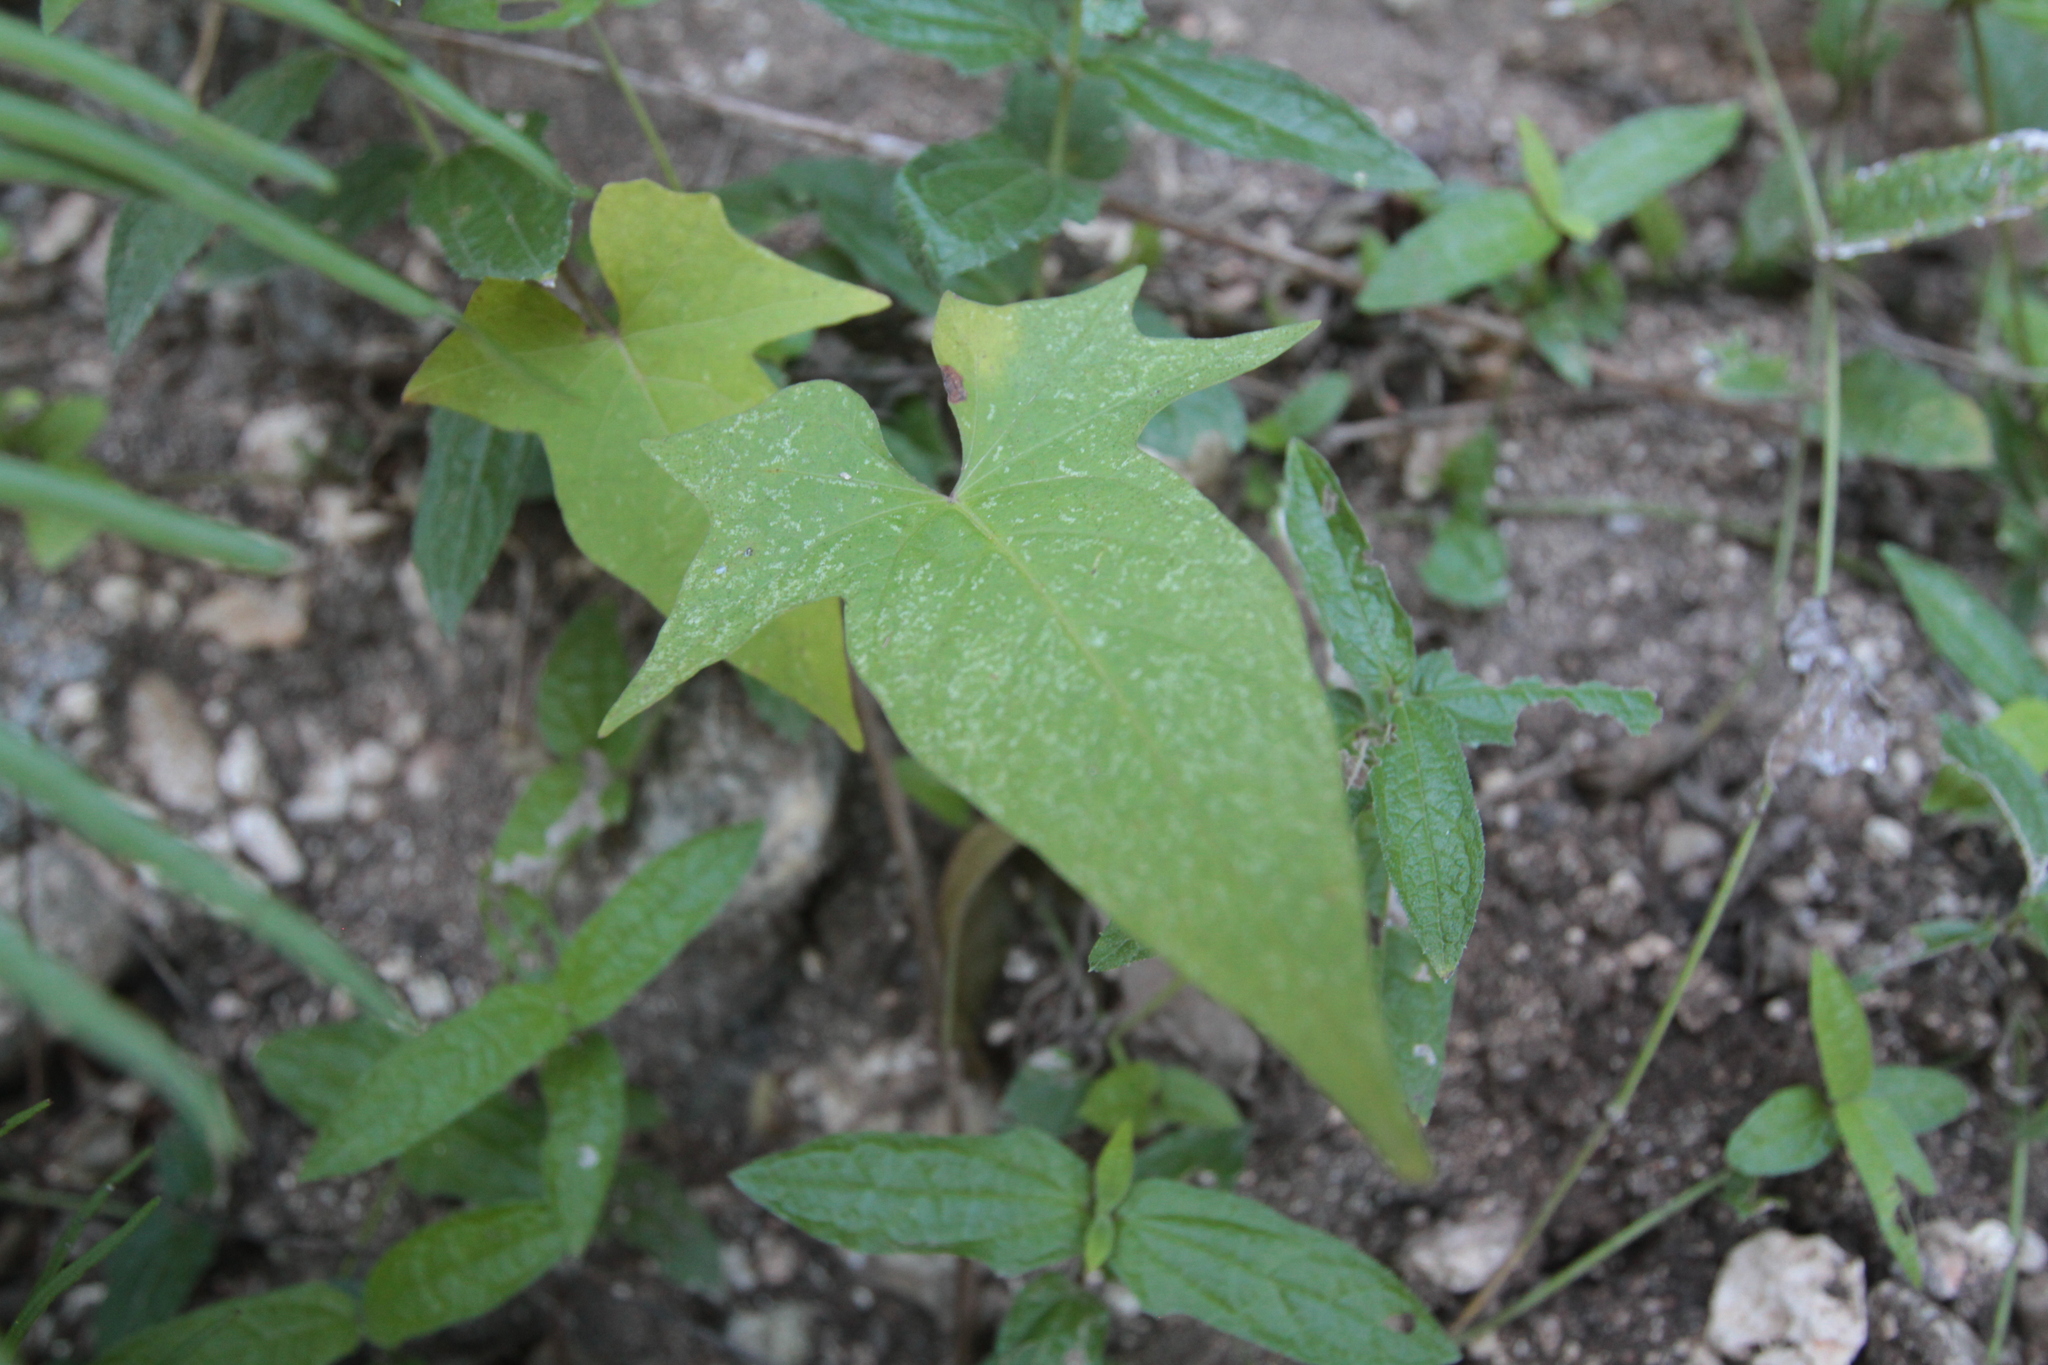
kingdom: Plantae
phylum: Tracheophyta
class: Magnoliopsida
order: Solanales
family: Convolvulaceae
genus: Ipomoea
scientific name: Ipomoea batatas
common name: Sweet-potato
